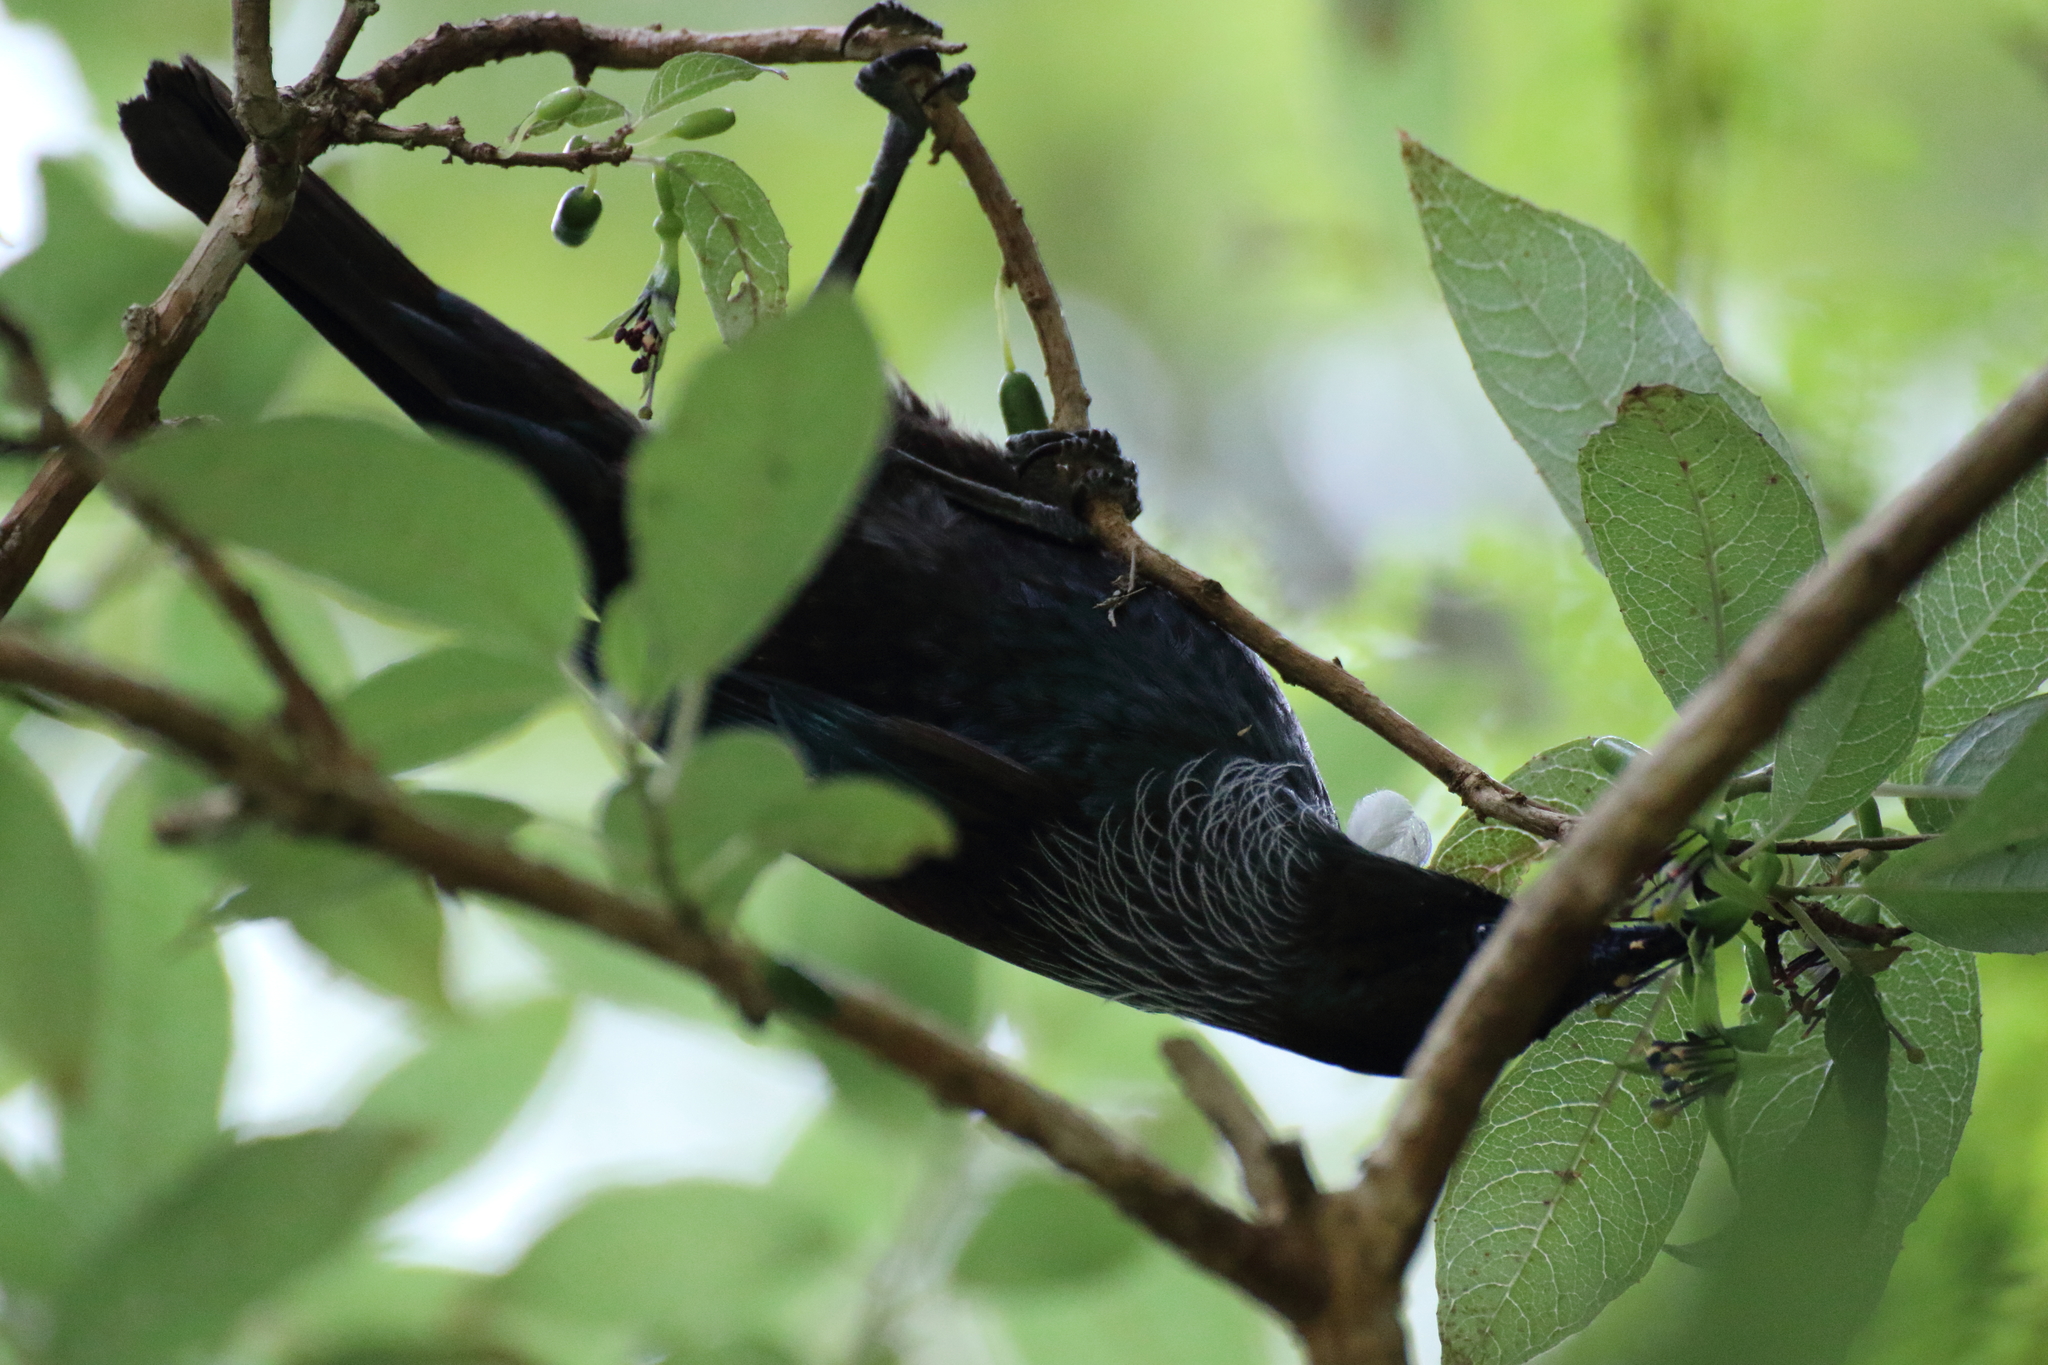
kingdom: Animalia
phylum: Chordata
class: Aves
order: Passeriformes
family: Meliphagidae
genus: Prosthemadera
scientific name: Prosthemadera novaeseelandiae
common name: Tui
